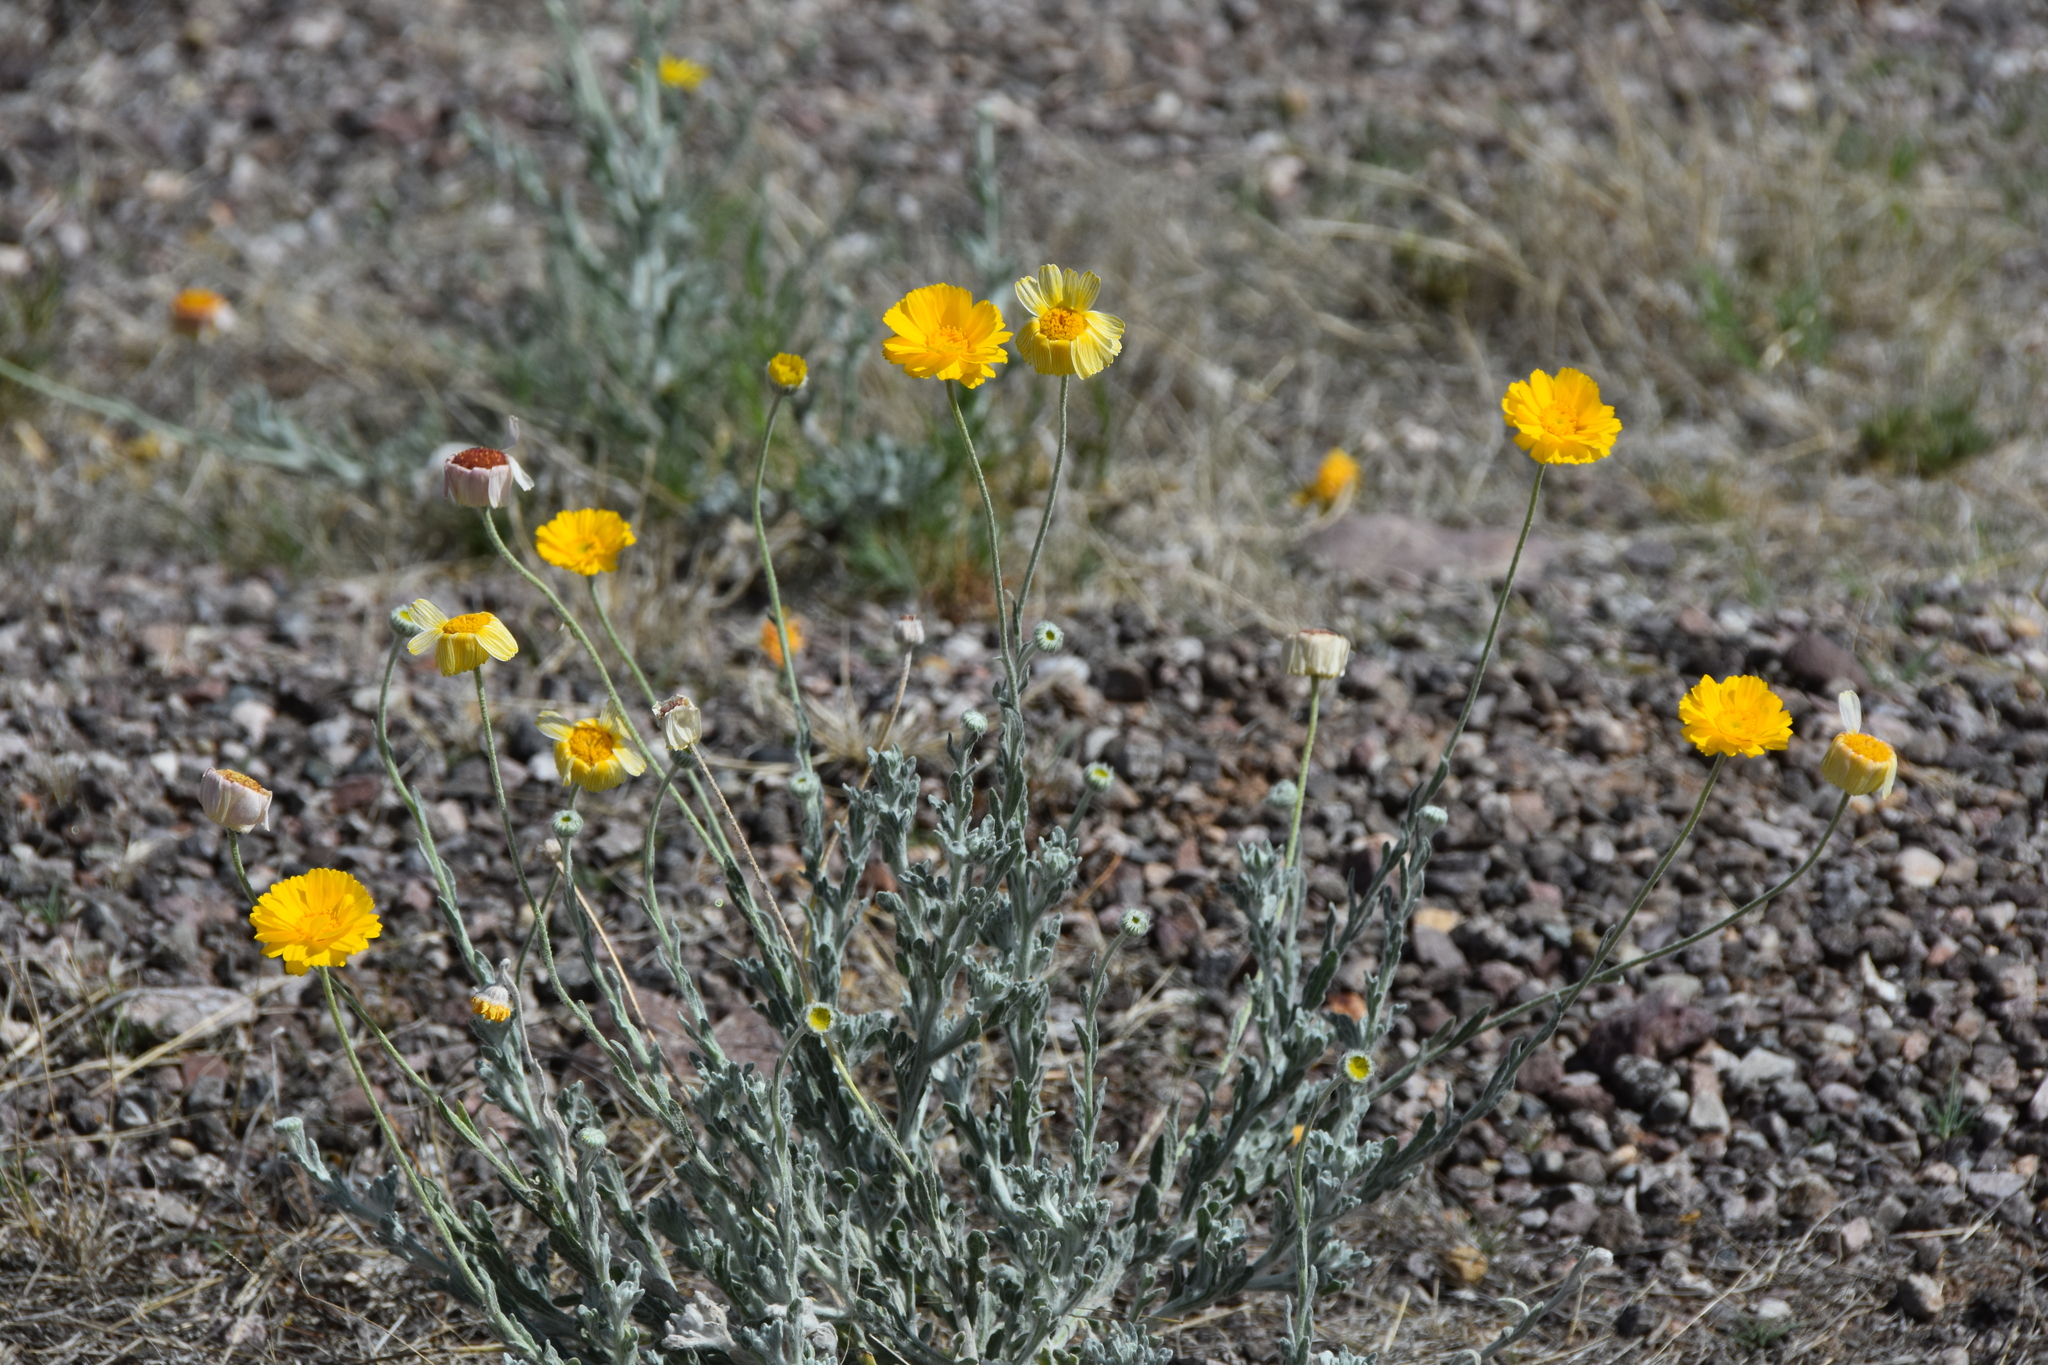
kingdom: Plantae
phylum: Tracheophyta
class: Magnoliopsida
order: Asterales
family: Asteraceae
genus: Baileya
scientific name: Baileya multiradiata
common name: Desert-marigold
